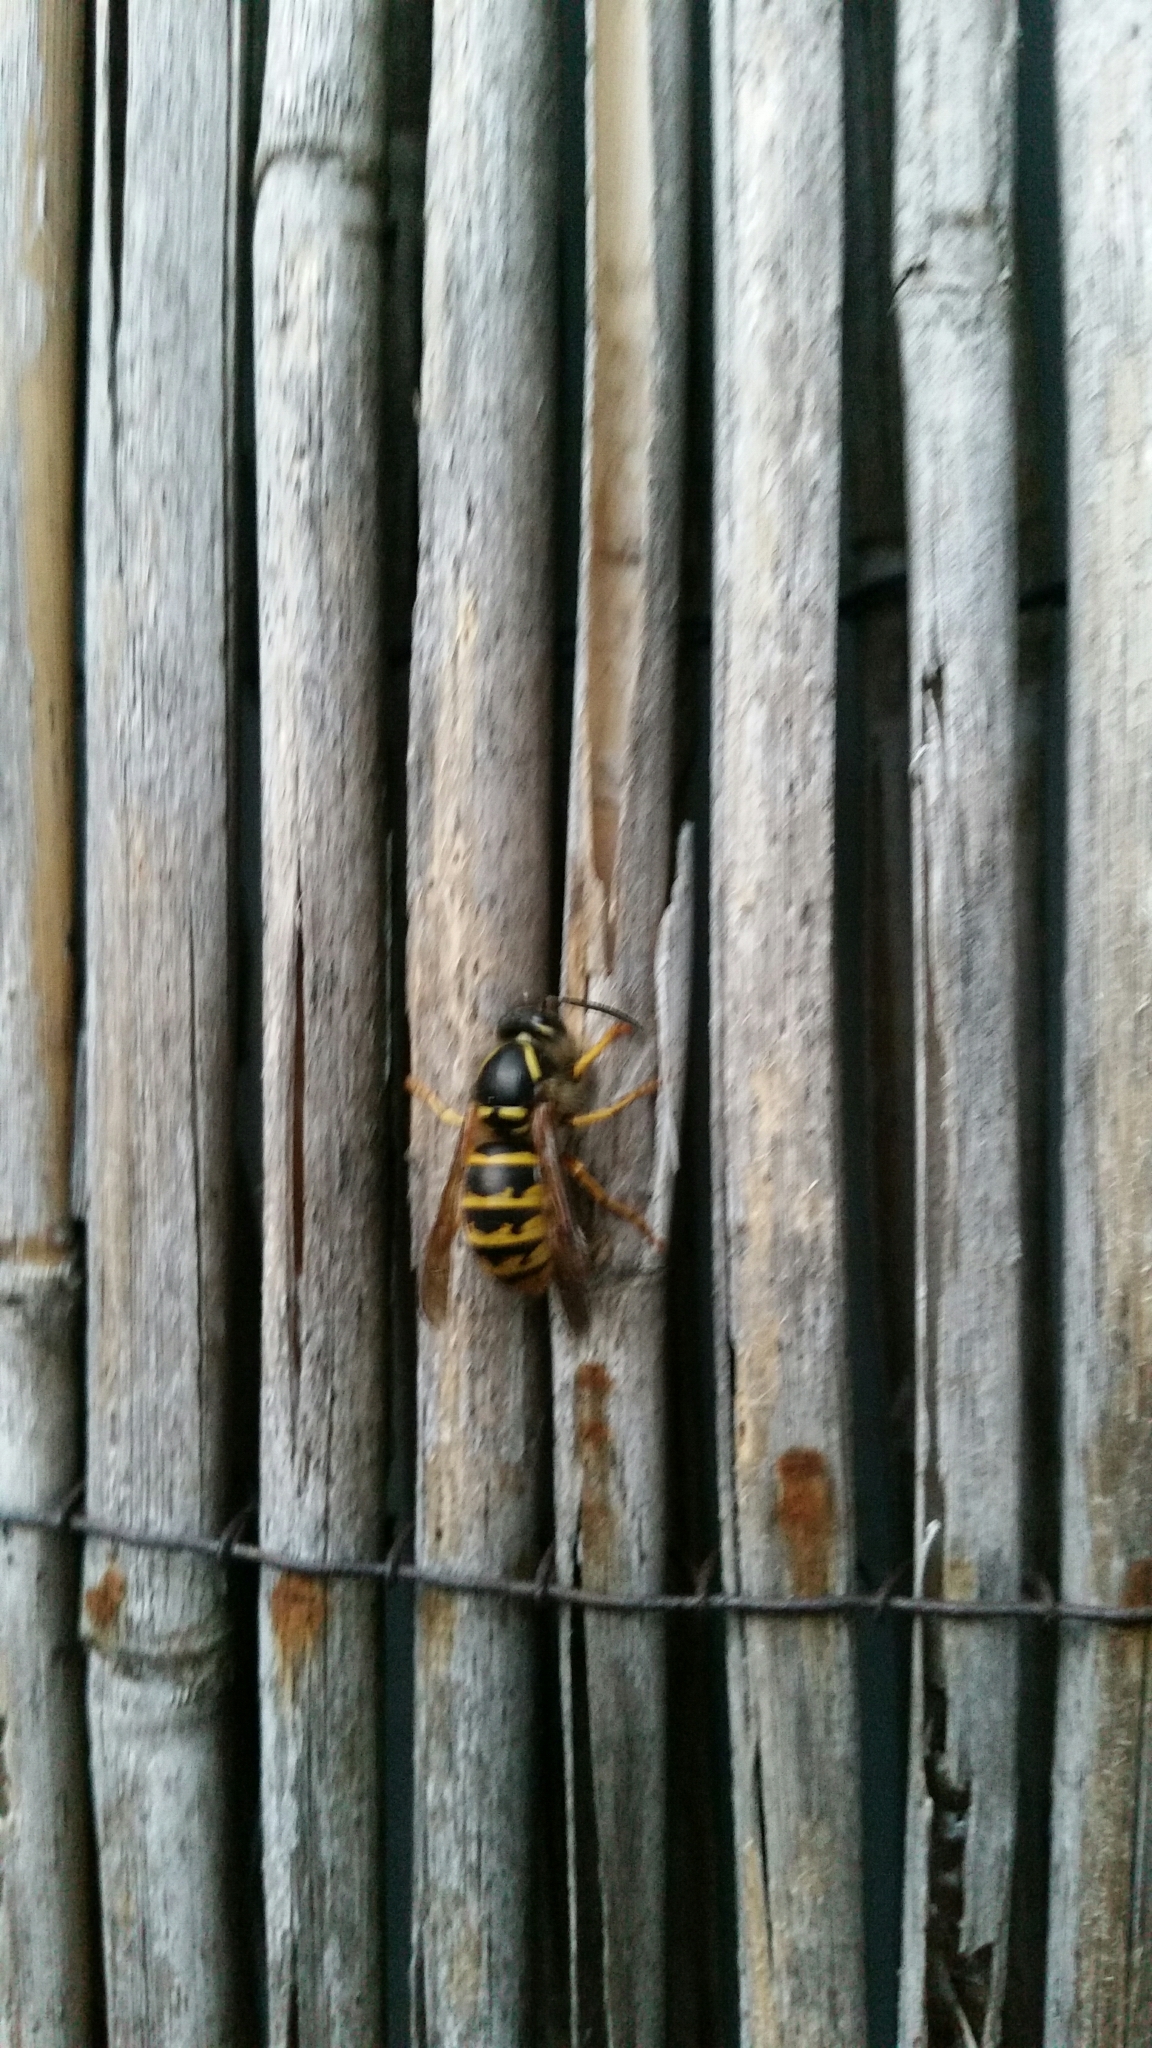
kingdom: Animalia
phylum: Arthropoda
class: Insecta
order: Hymenoptera
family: Vespidae
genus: Vespula
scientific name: Vespula vulgaris
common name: Common wasp
